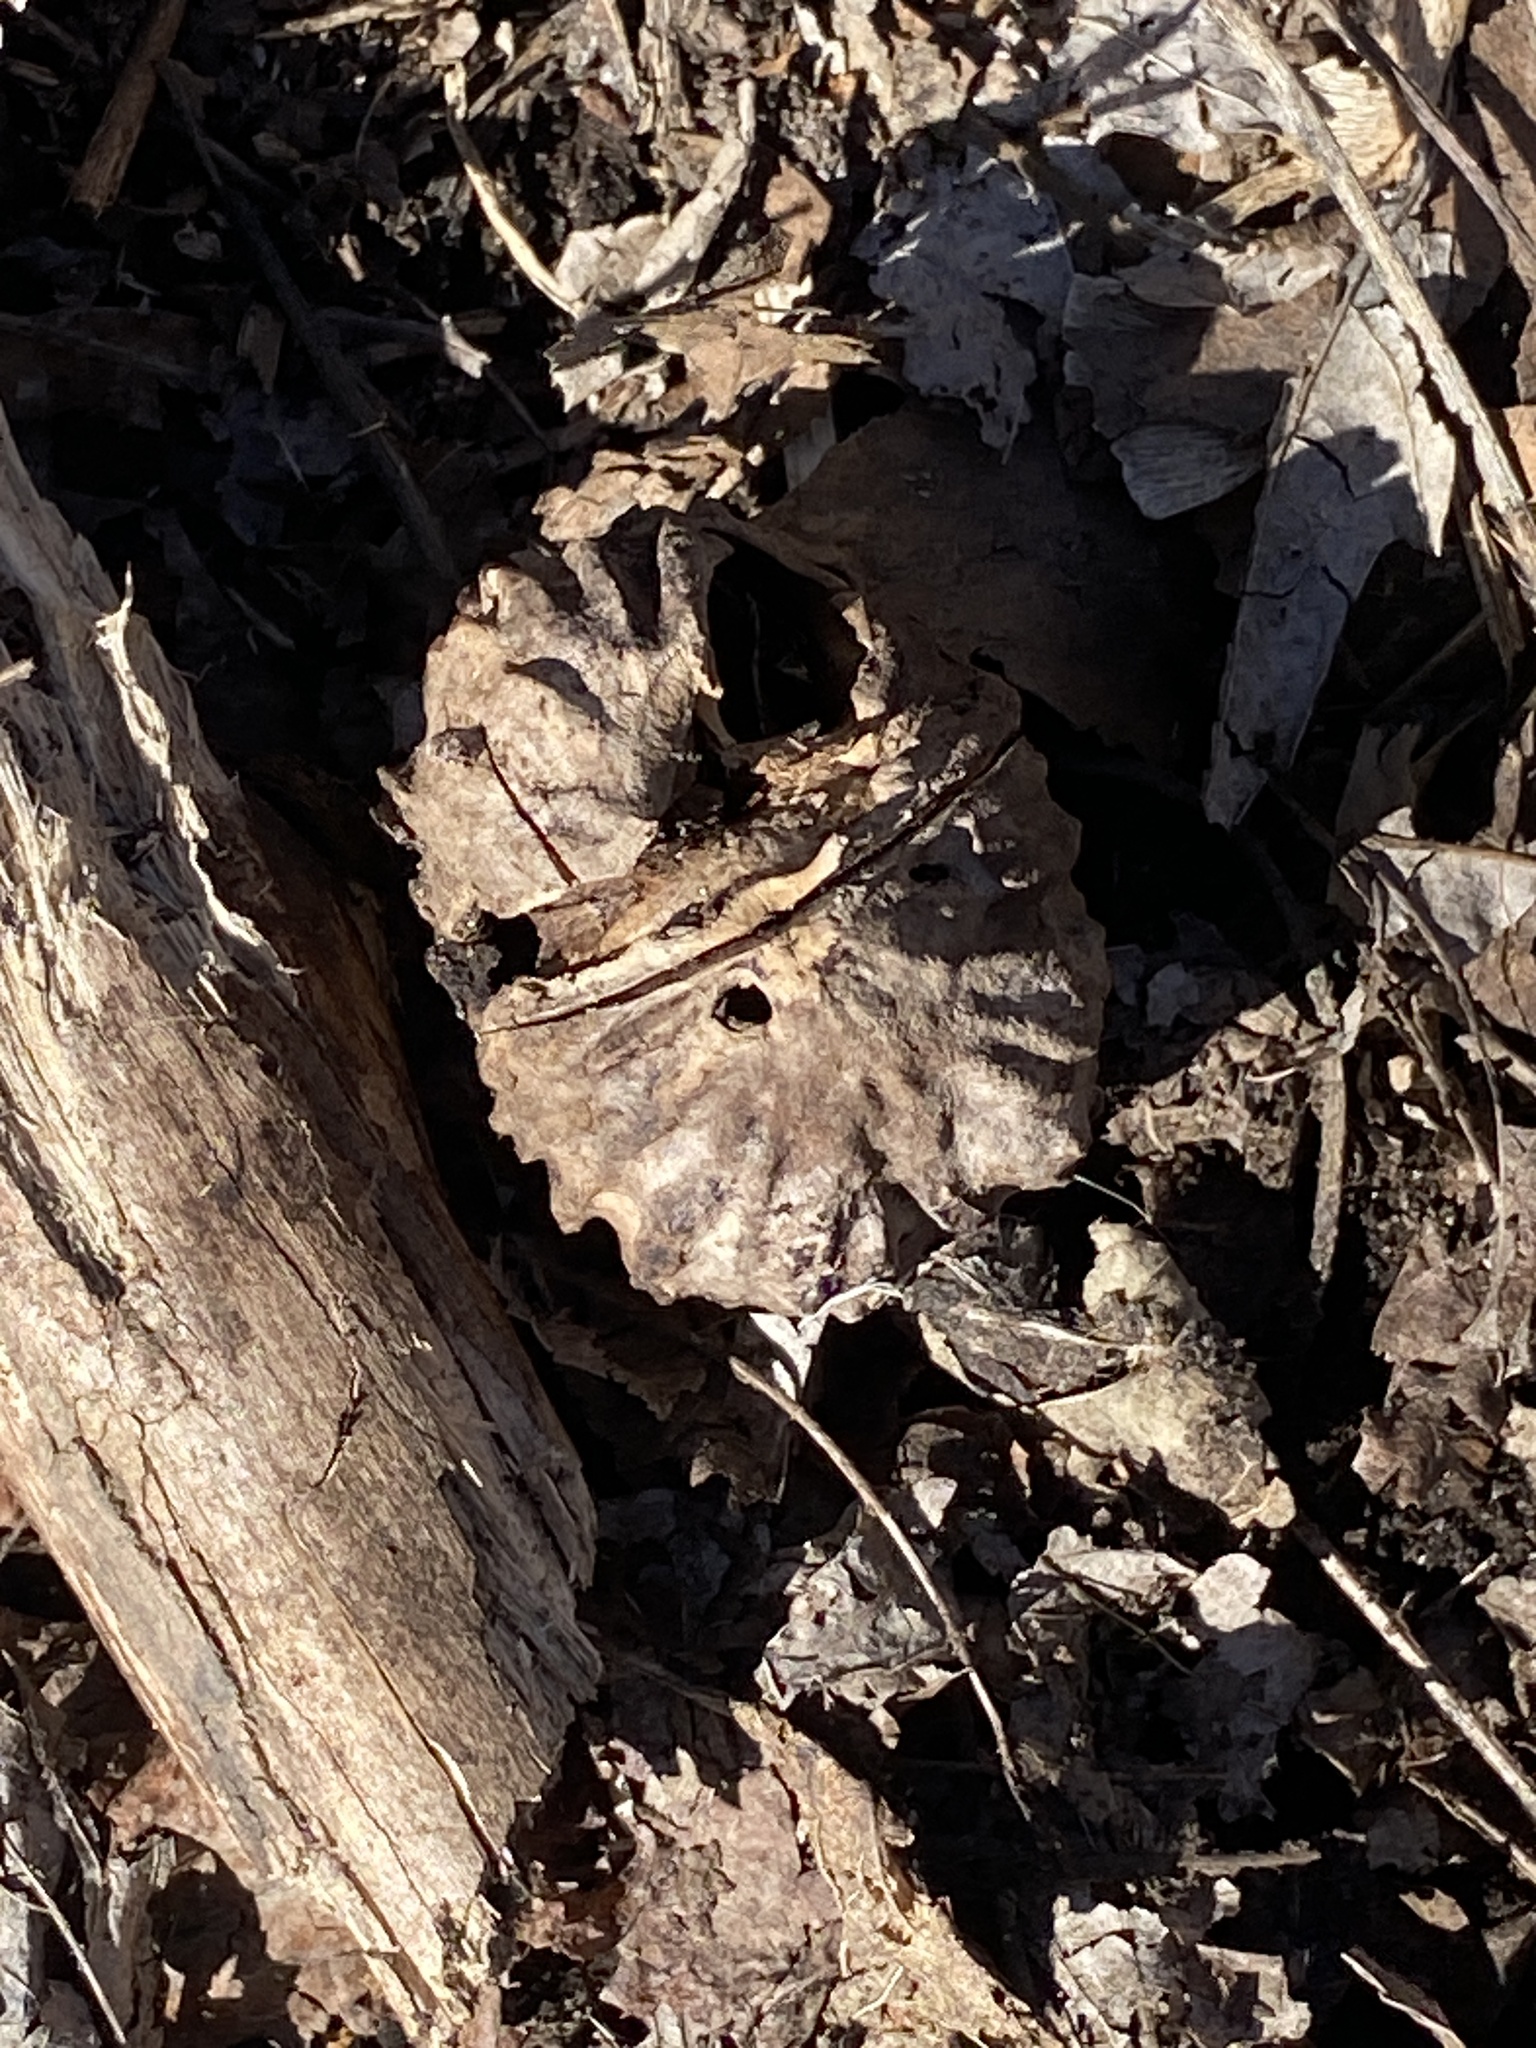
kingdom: Plantae
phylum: Tracheophyta
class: Magnoliopsida
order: Fagales
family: Juglandaceae
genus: Juglans
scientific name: Juglans nigra
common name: Black walnut
